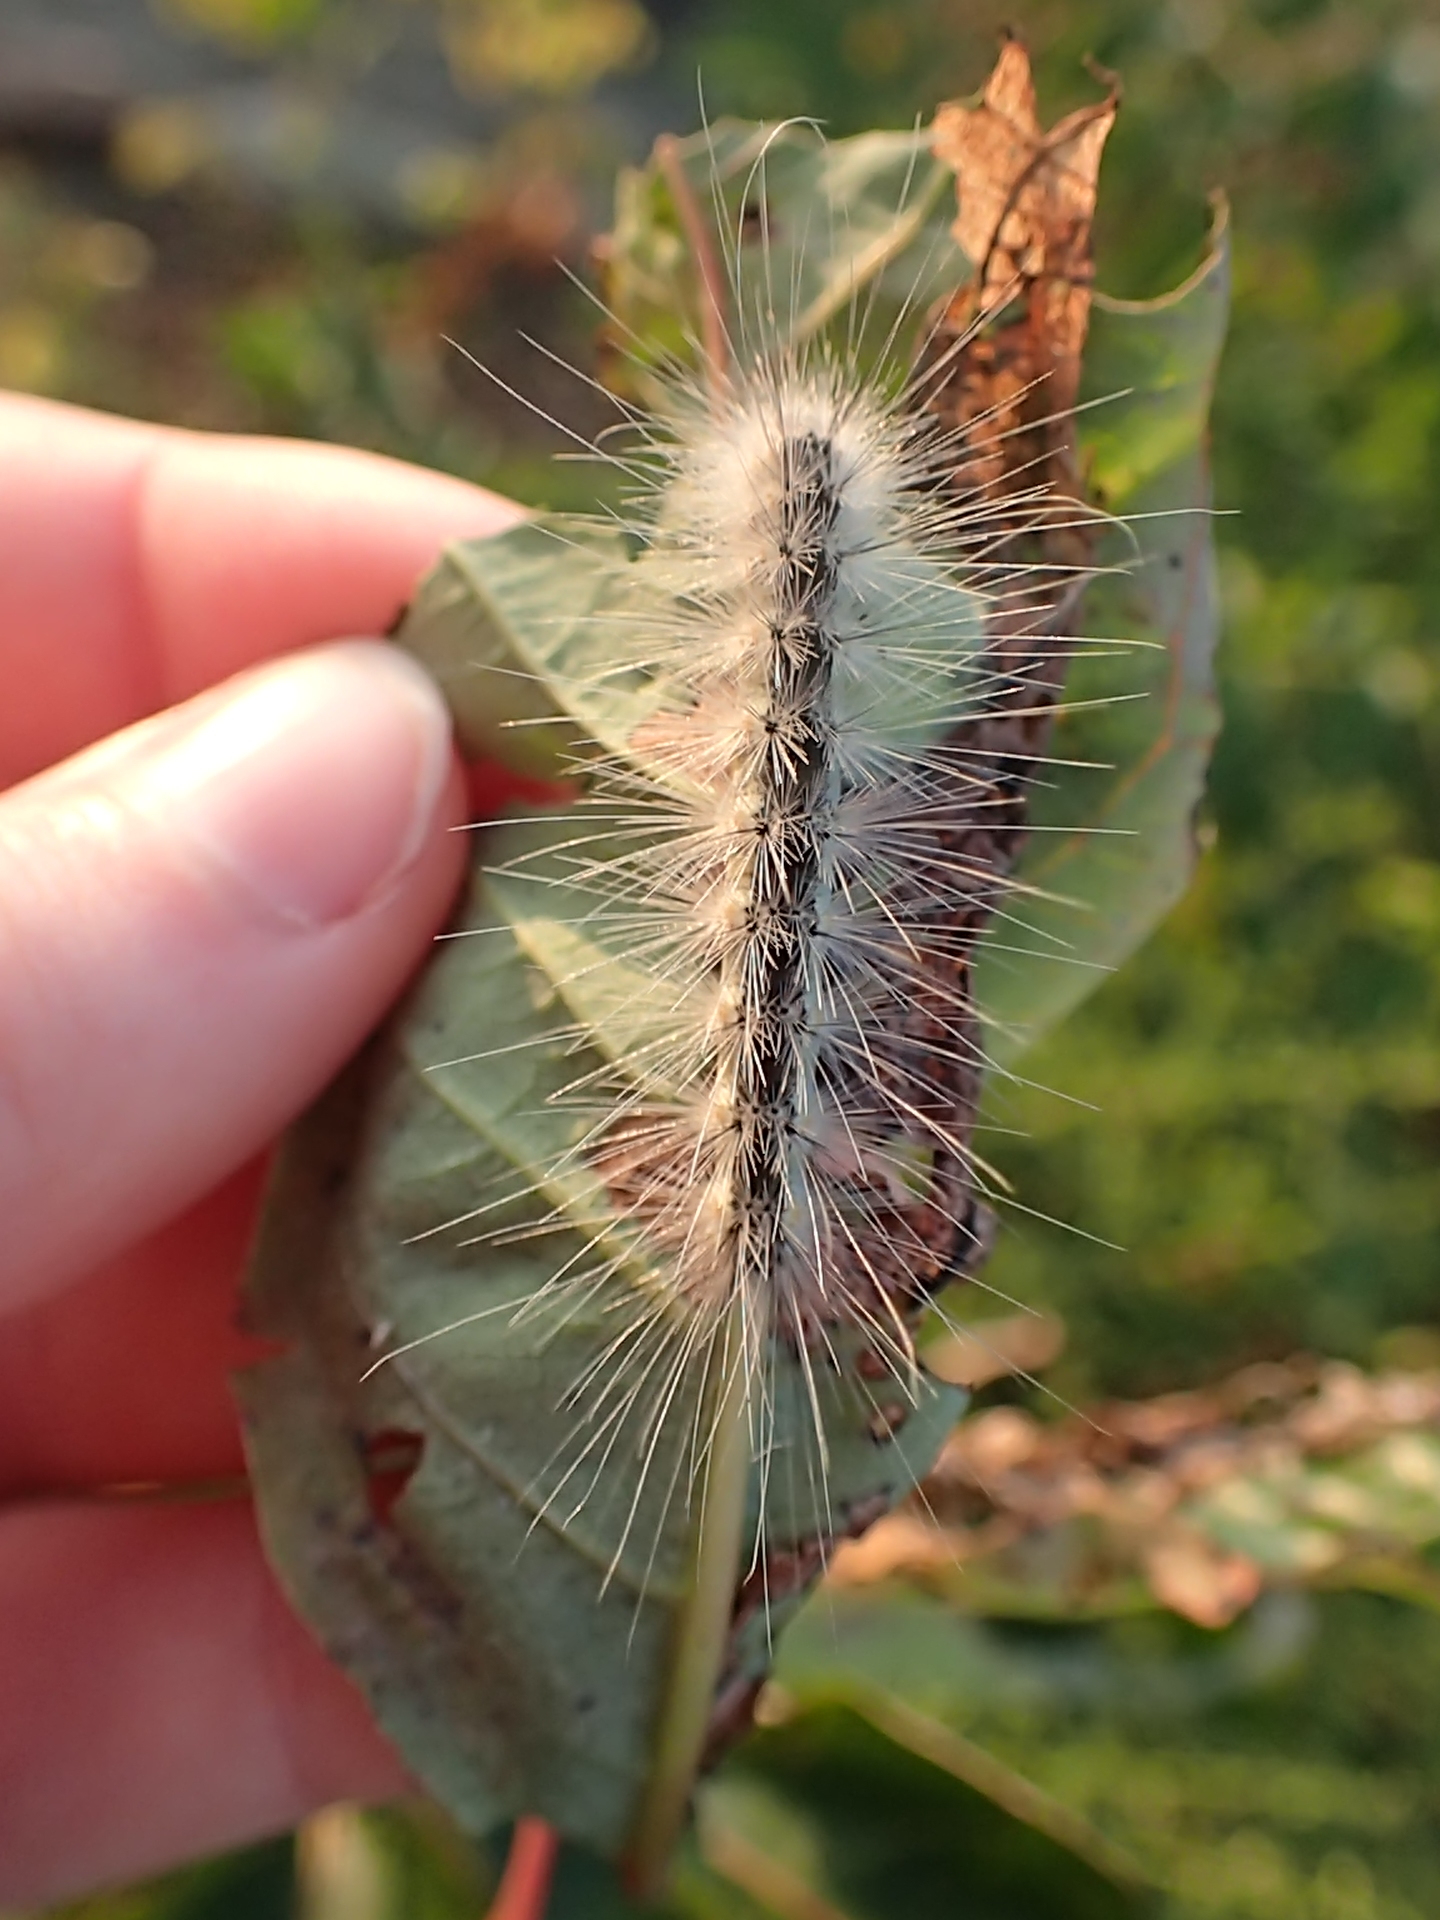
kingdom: Animalia
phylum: Arthropoda
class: Insecta
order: Lepidoptera
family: Erebidae
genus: Hyphantria
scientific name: Hyphantria cunea
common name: American white moth
